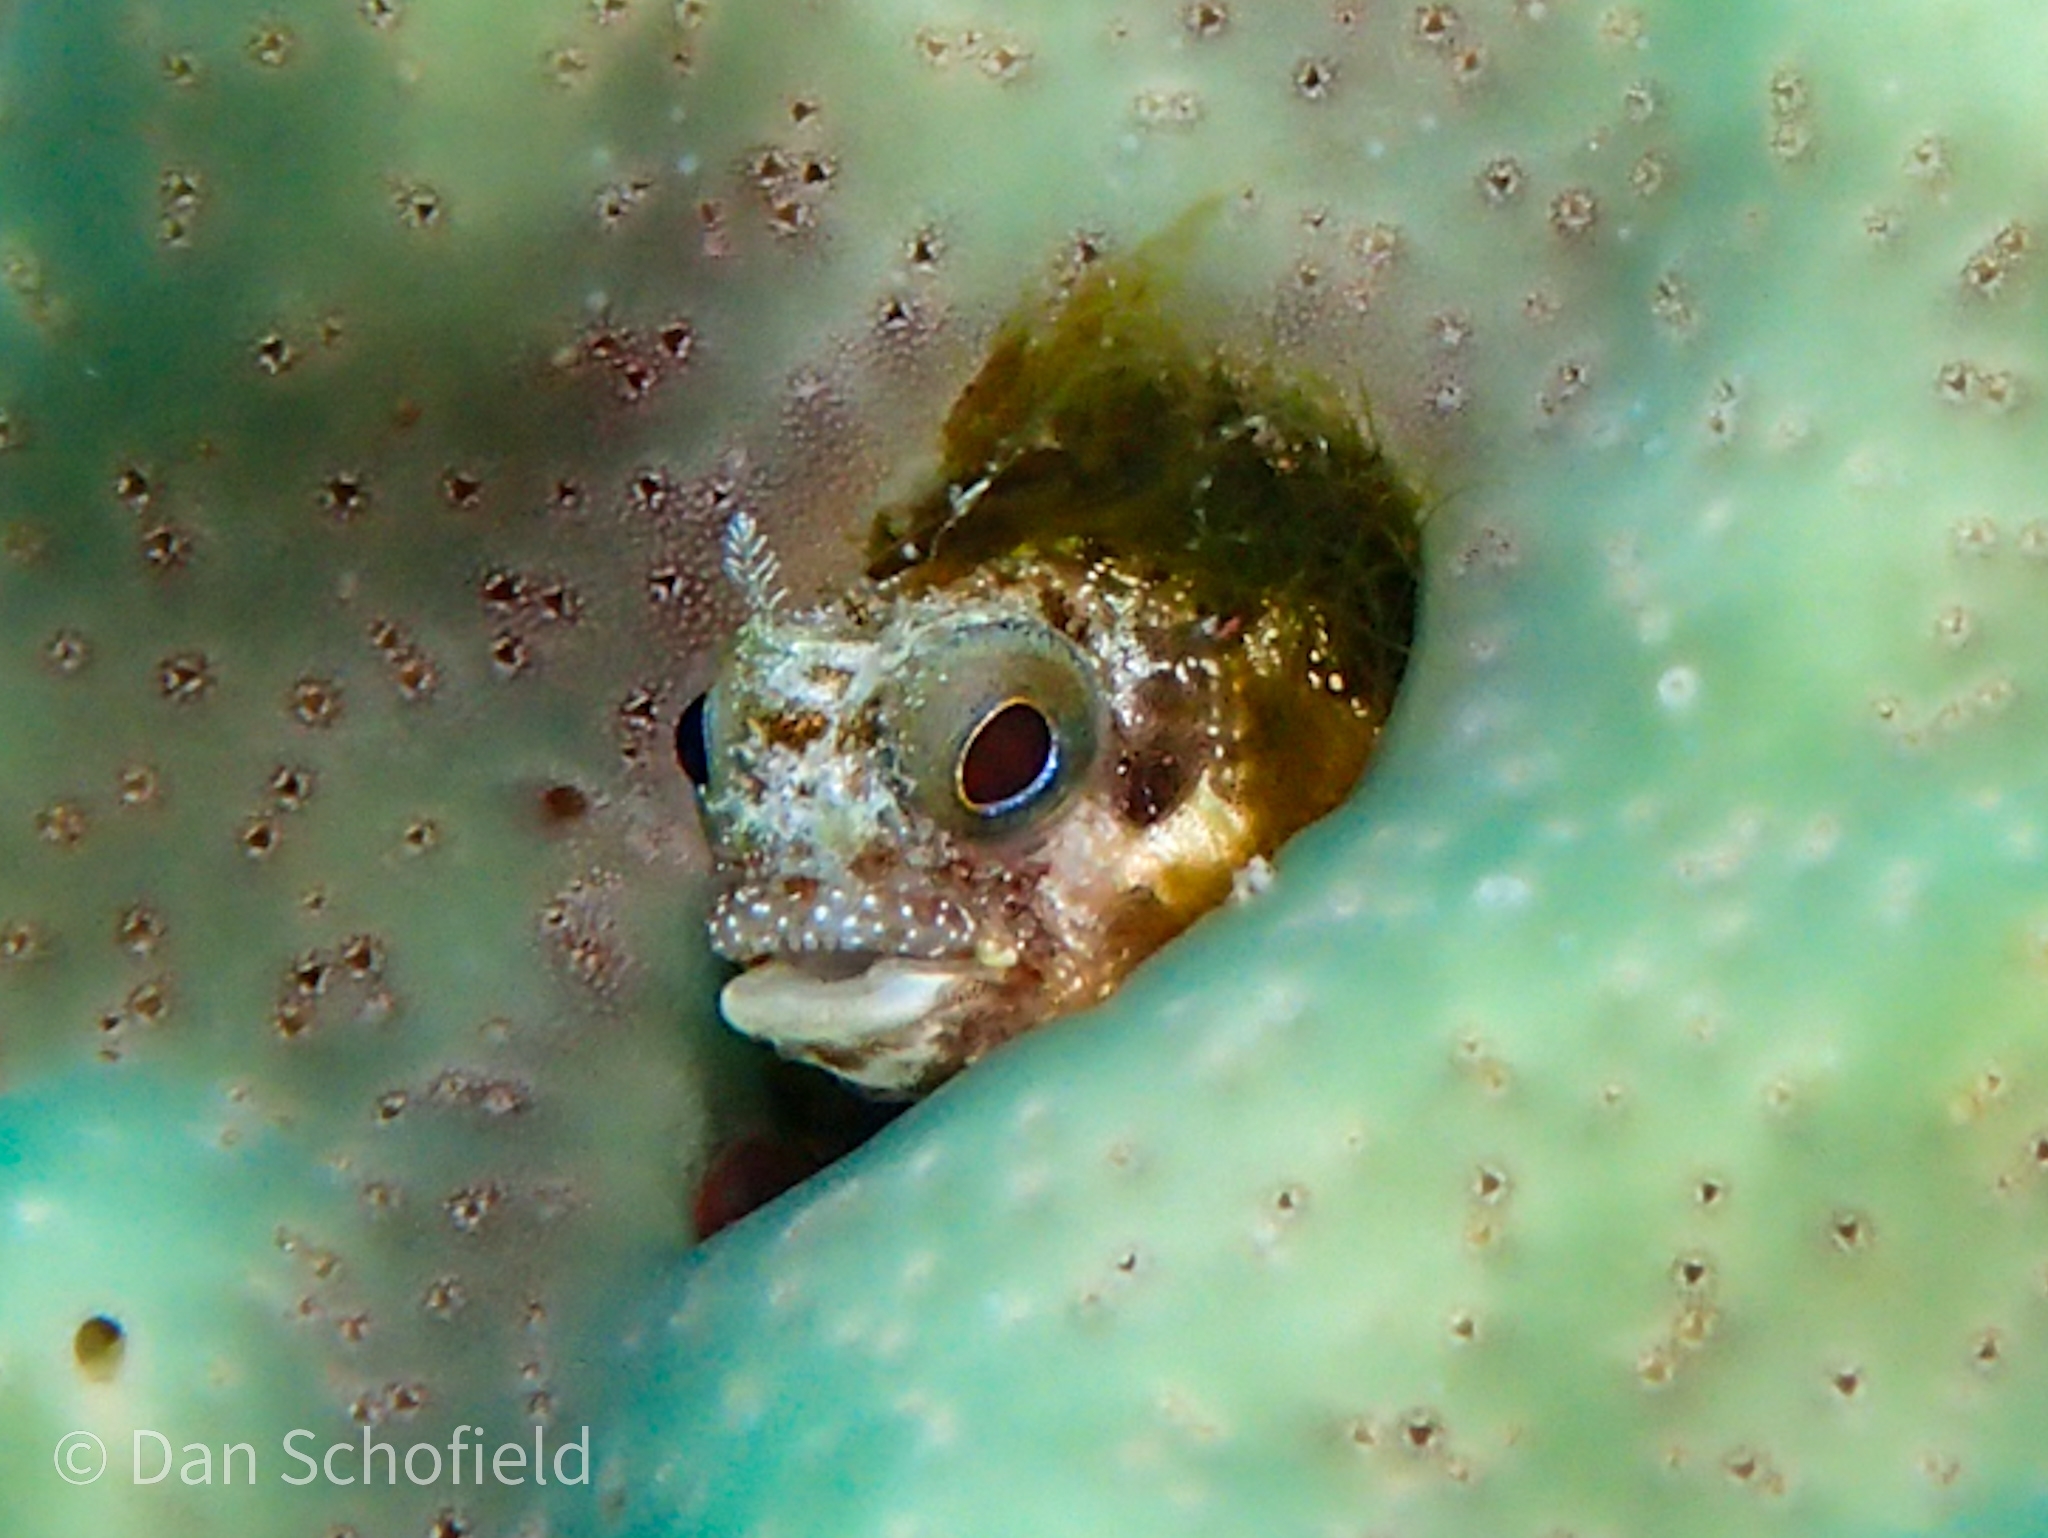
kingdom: Animalia
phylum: Chordata
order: Perciformes
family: Chaenopsidae
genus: Acanthemblemaria
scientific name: Acanthemblemaria maria
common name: Secretary blenny
